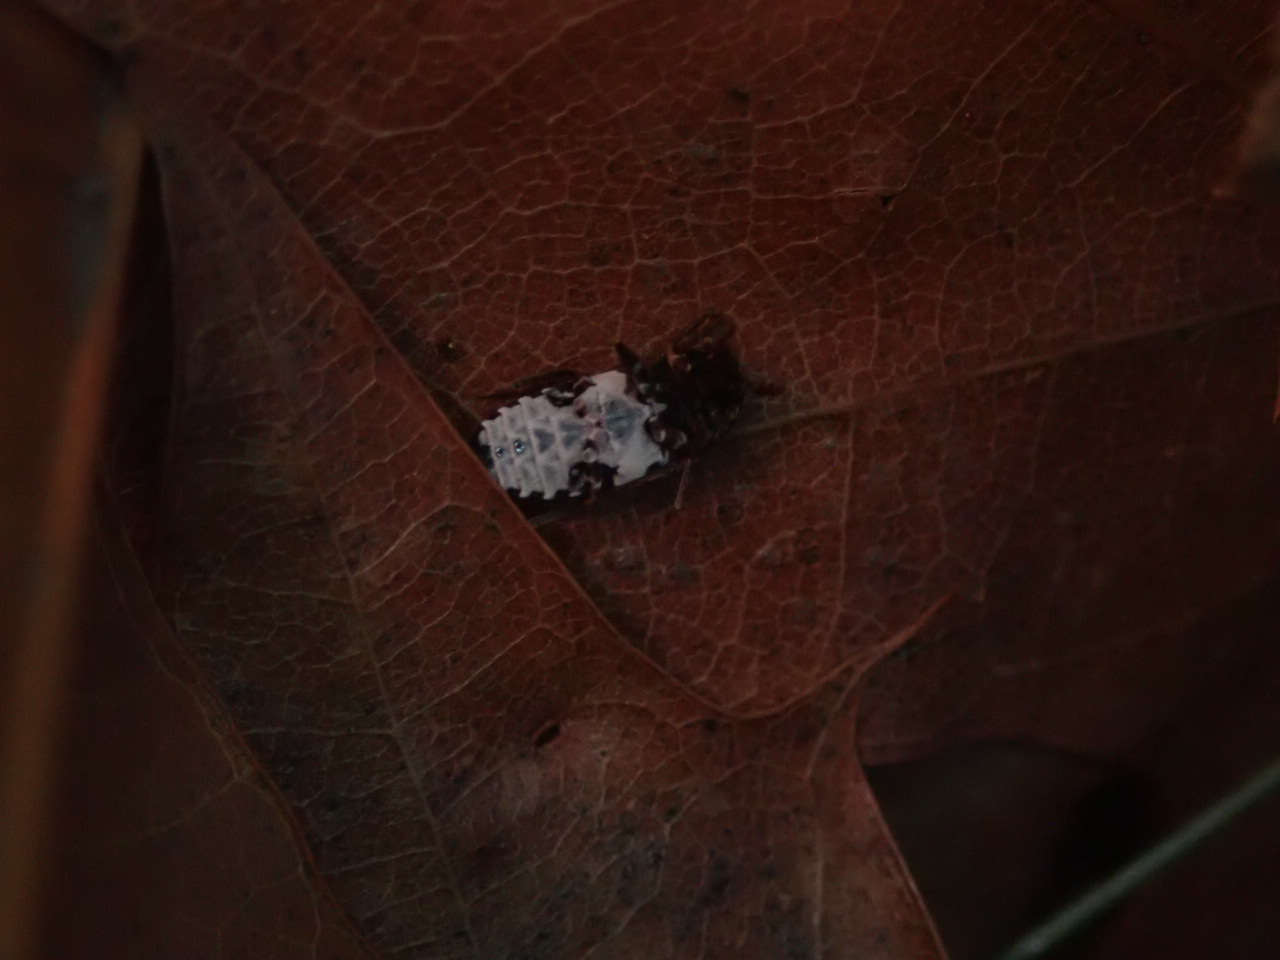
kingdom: Animalia
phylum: Arthropoda
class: Insecta
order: Coleoptera
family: Dermestidae
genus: Dermestes
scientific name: Dermestes undulatus
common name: Wavy carpet beetle
